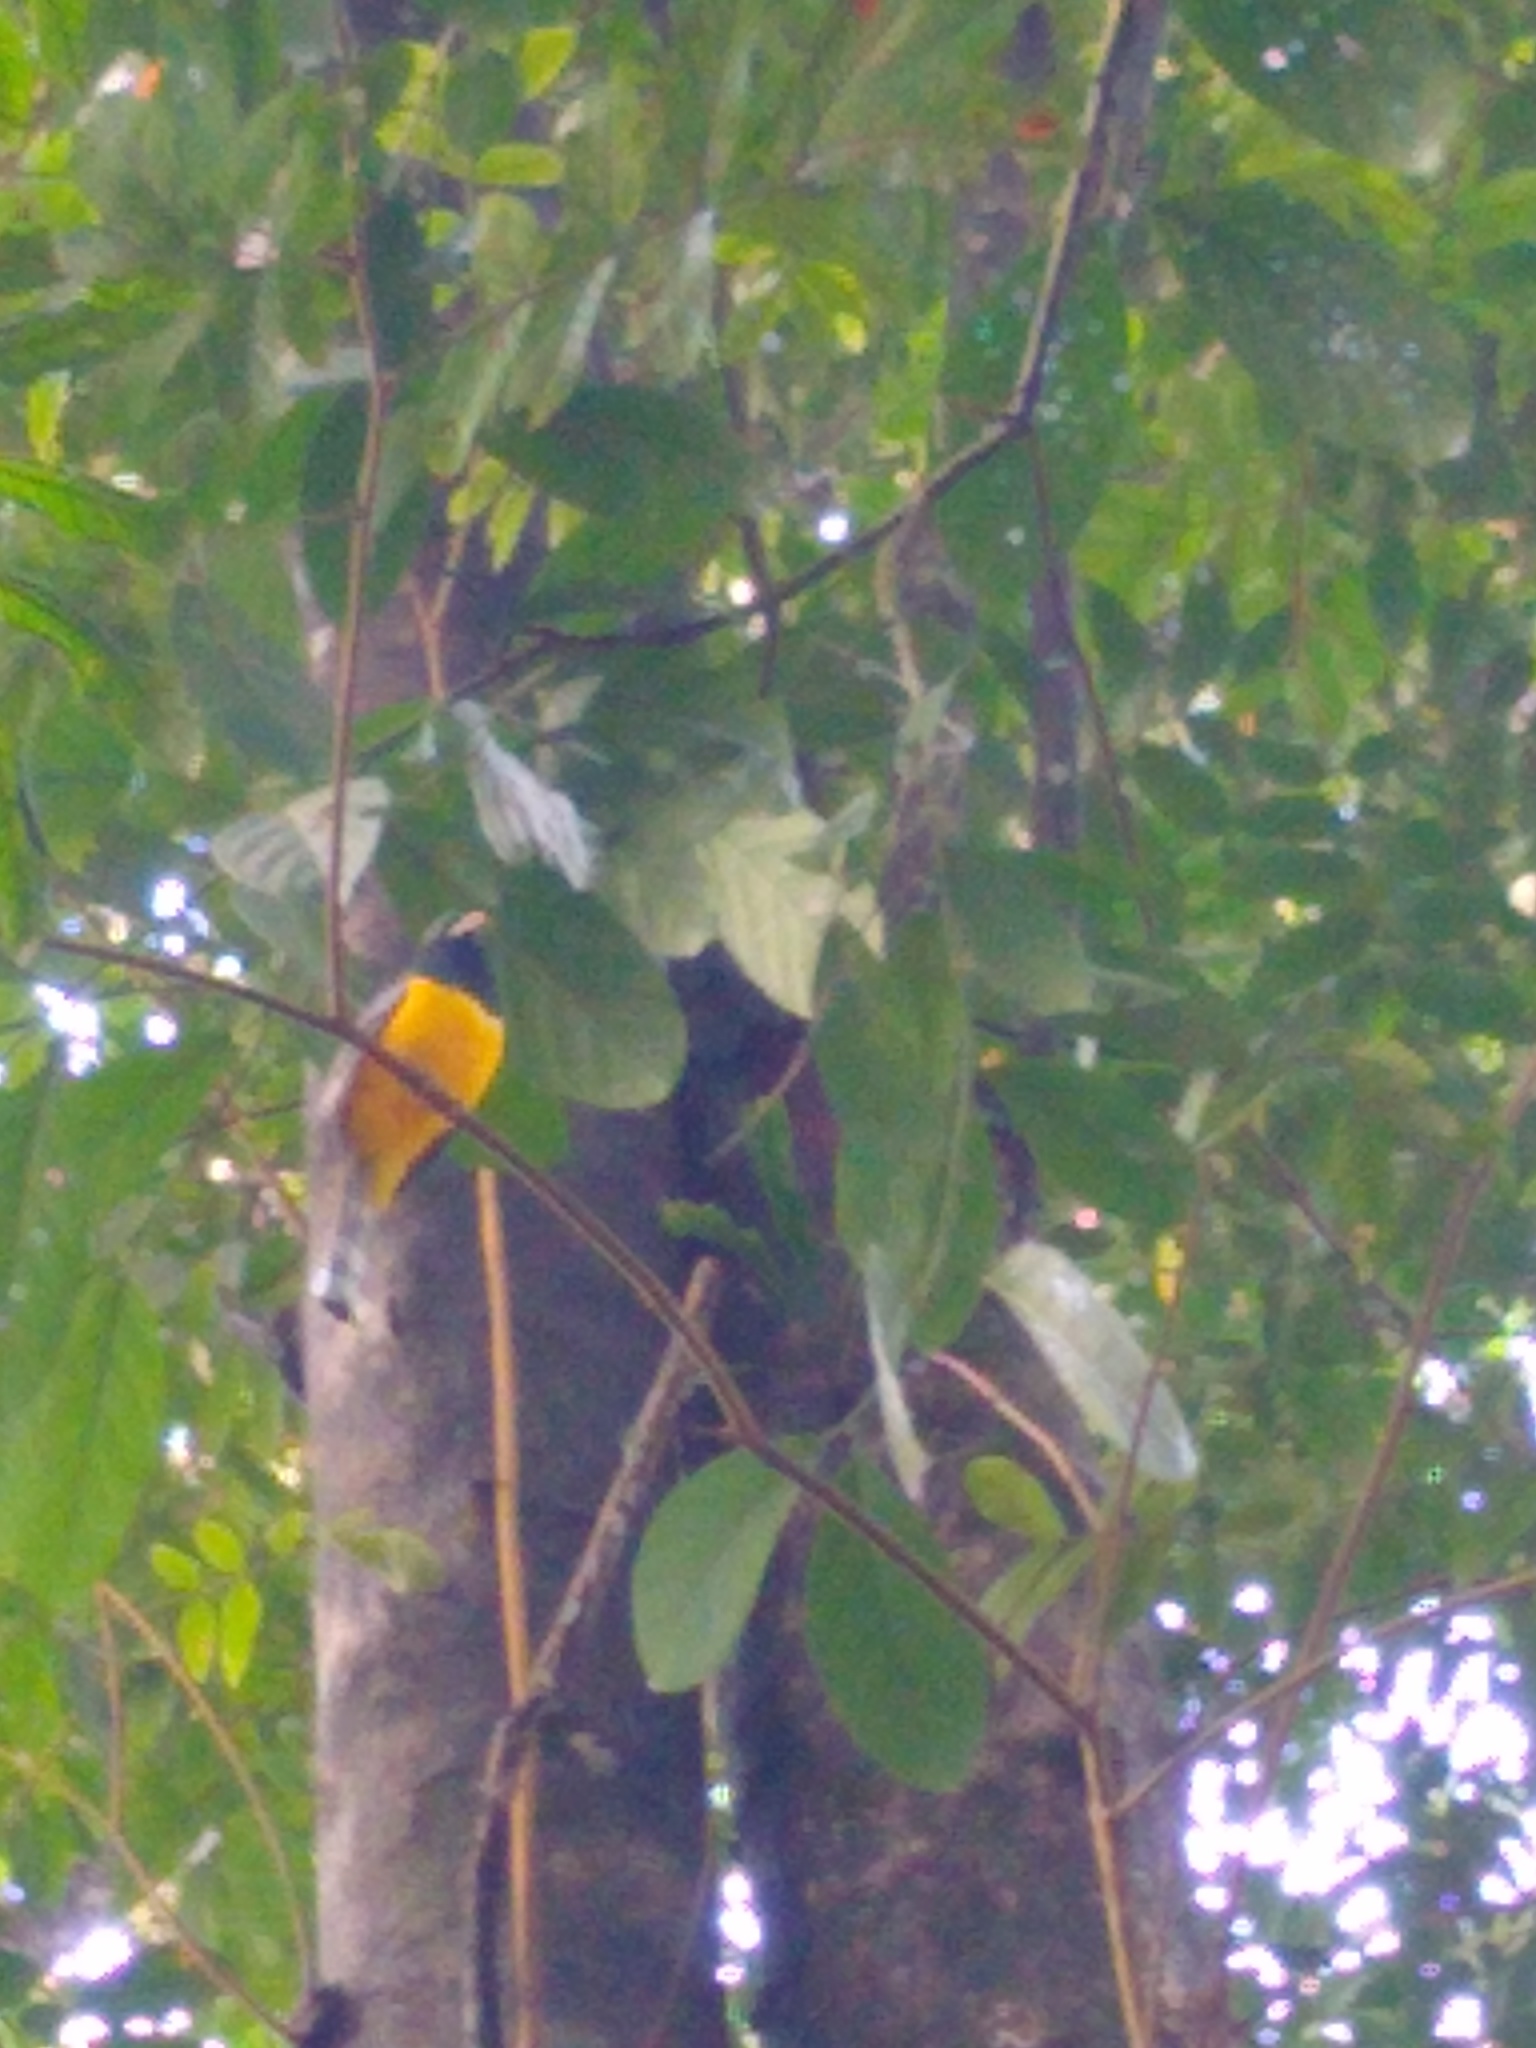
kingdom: Animalia
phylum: Chordata
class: Aves
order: Trogoniformes
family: Trogonidae
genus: Trogon
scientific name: Trogon rufus
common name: Black-throated trogon
